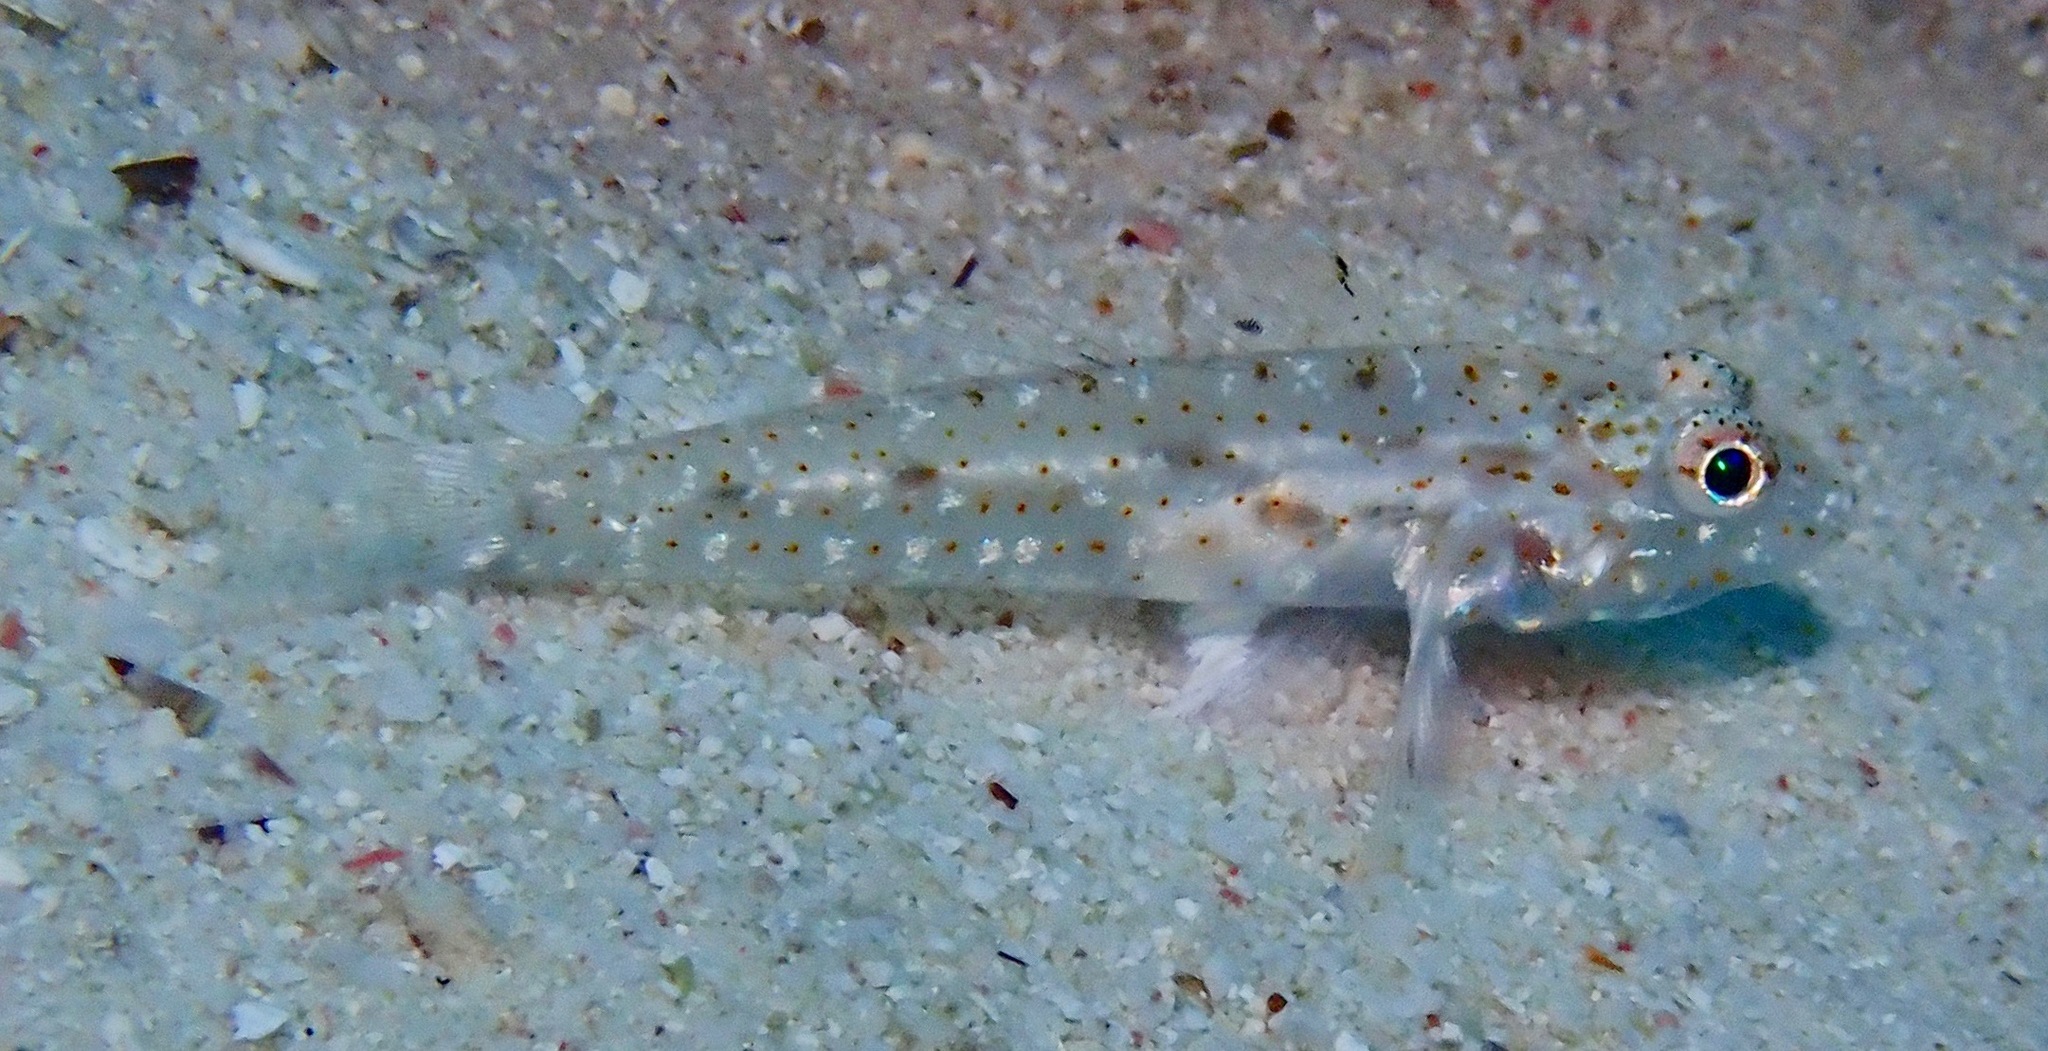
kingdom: Animalia
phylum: Chordata
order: Perciformes
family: Gobiidae
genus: Fusigobius
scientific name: Fusigobius duospilus
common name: Twospot goby
